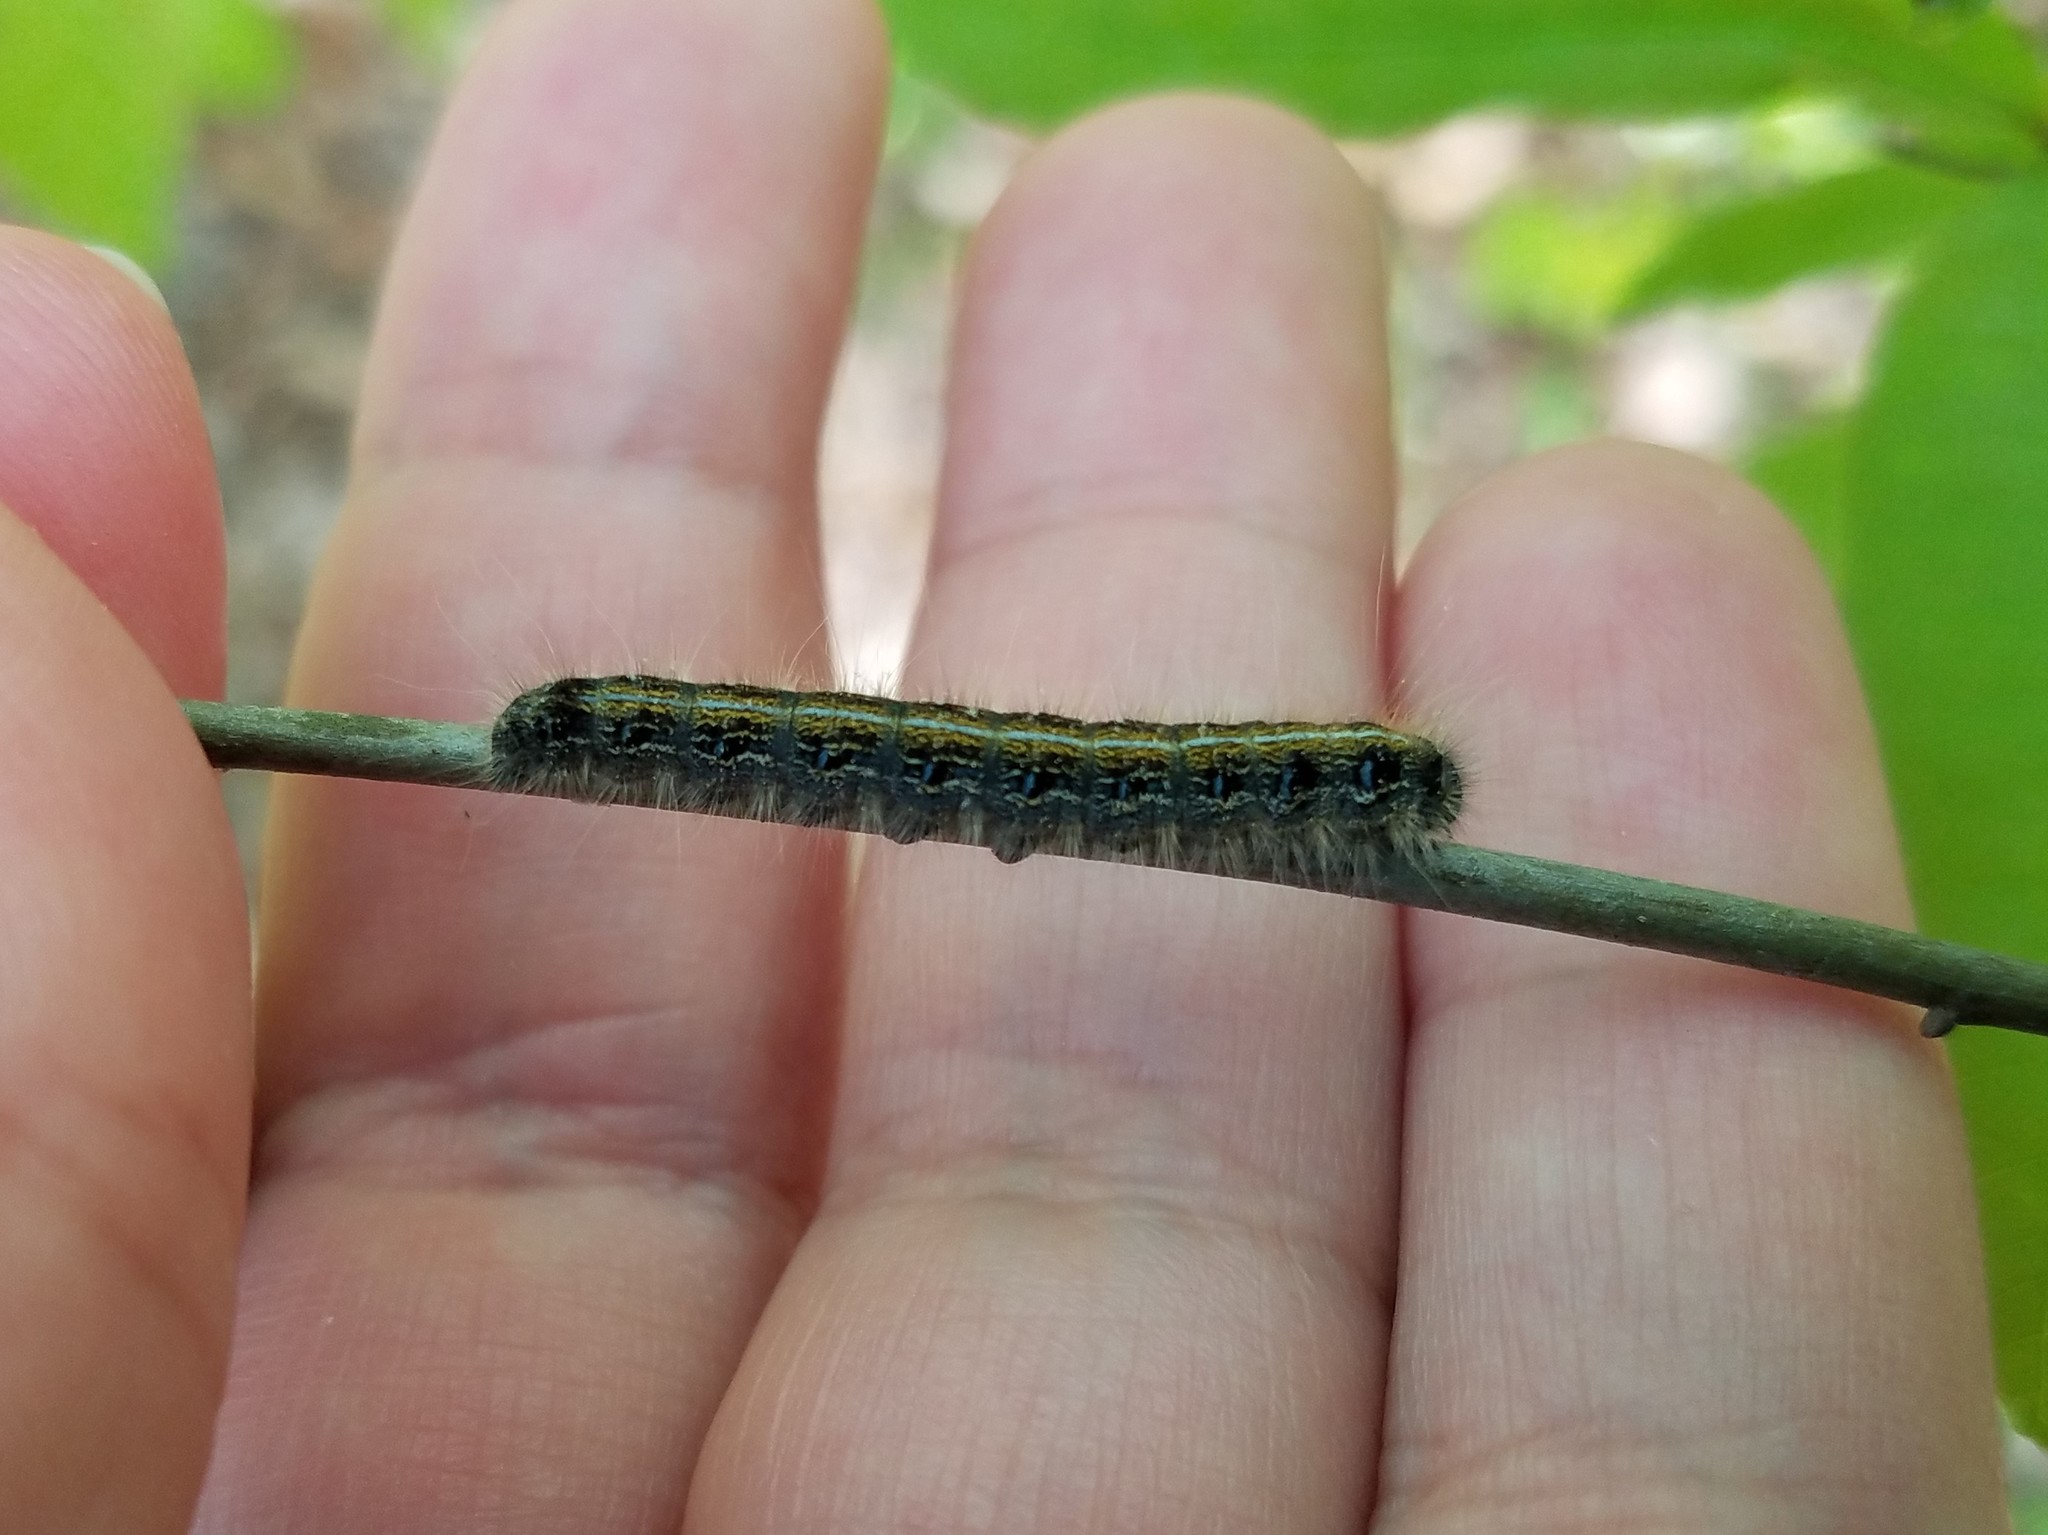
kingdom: Animalia
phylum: Arthropoda
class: Insecta
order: Lepidoptera
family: Lasiocampidae
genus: Malacosoma
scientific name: Malacosoma americana
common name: Eastern tent caterpillar moth
